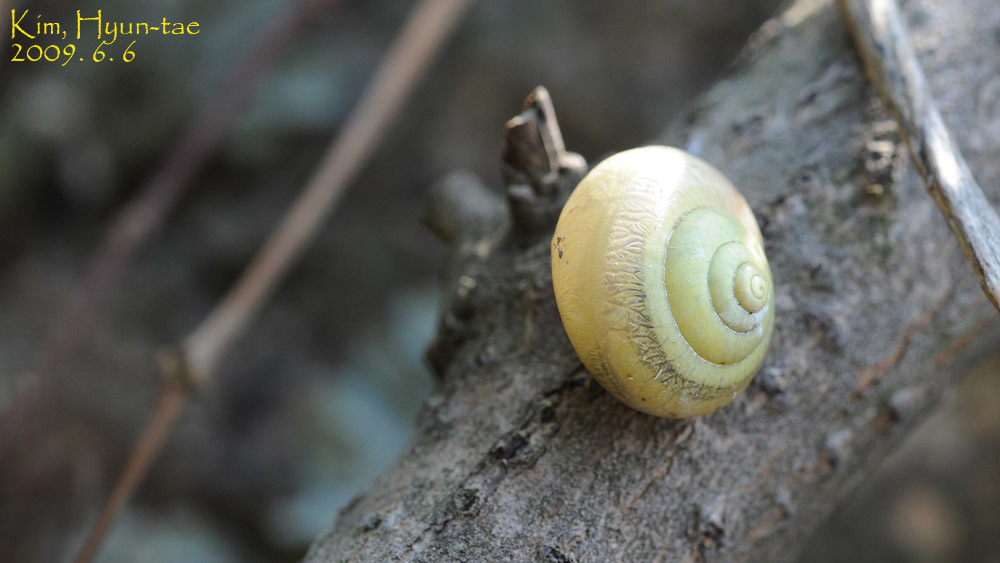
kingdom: Animalia
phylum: Mollusca
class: Gastropoda
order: Stylommatophora
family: Camaenidae
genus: Chosenelix
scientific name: Chosenelix problematica
